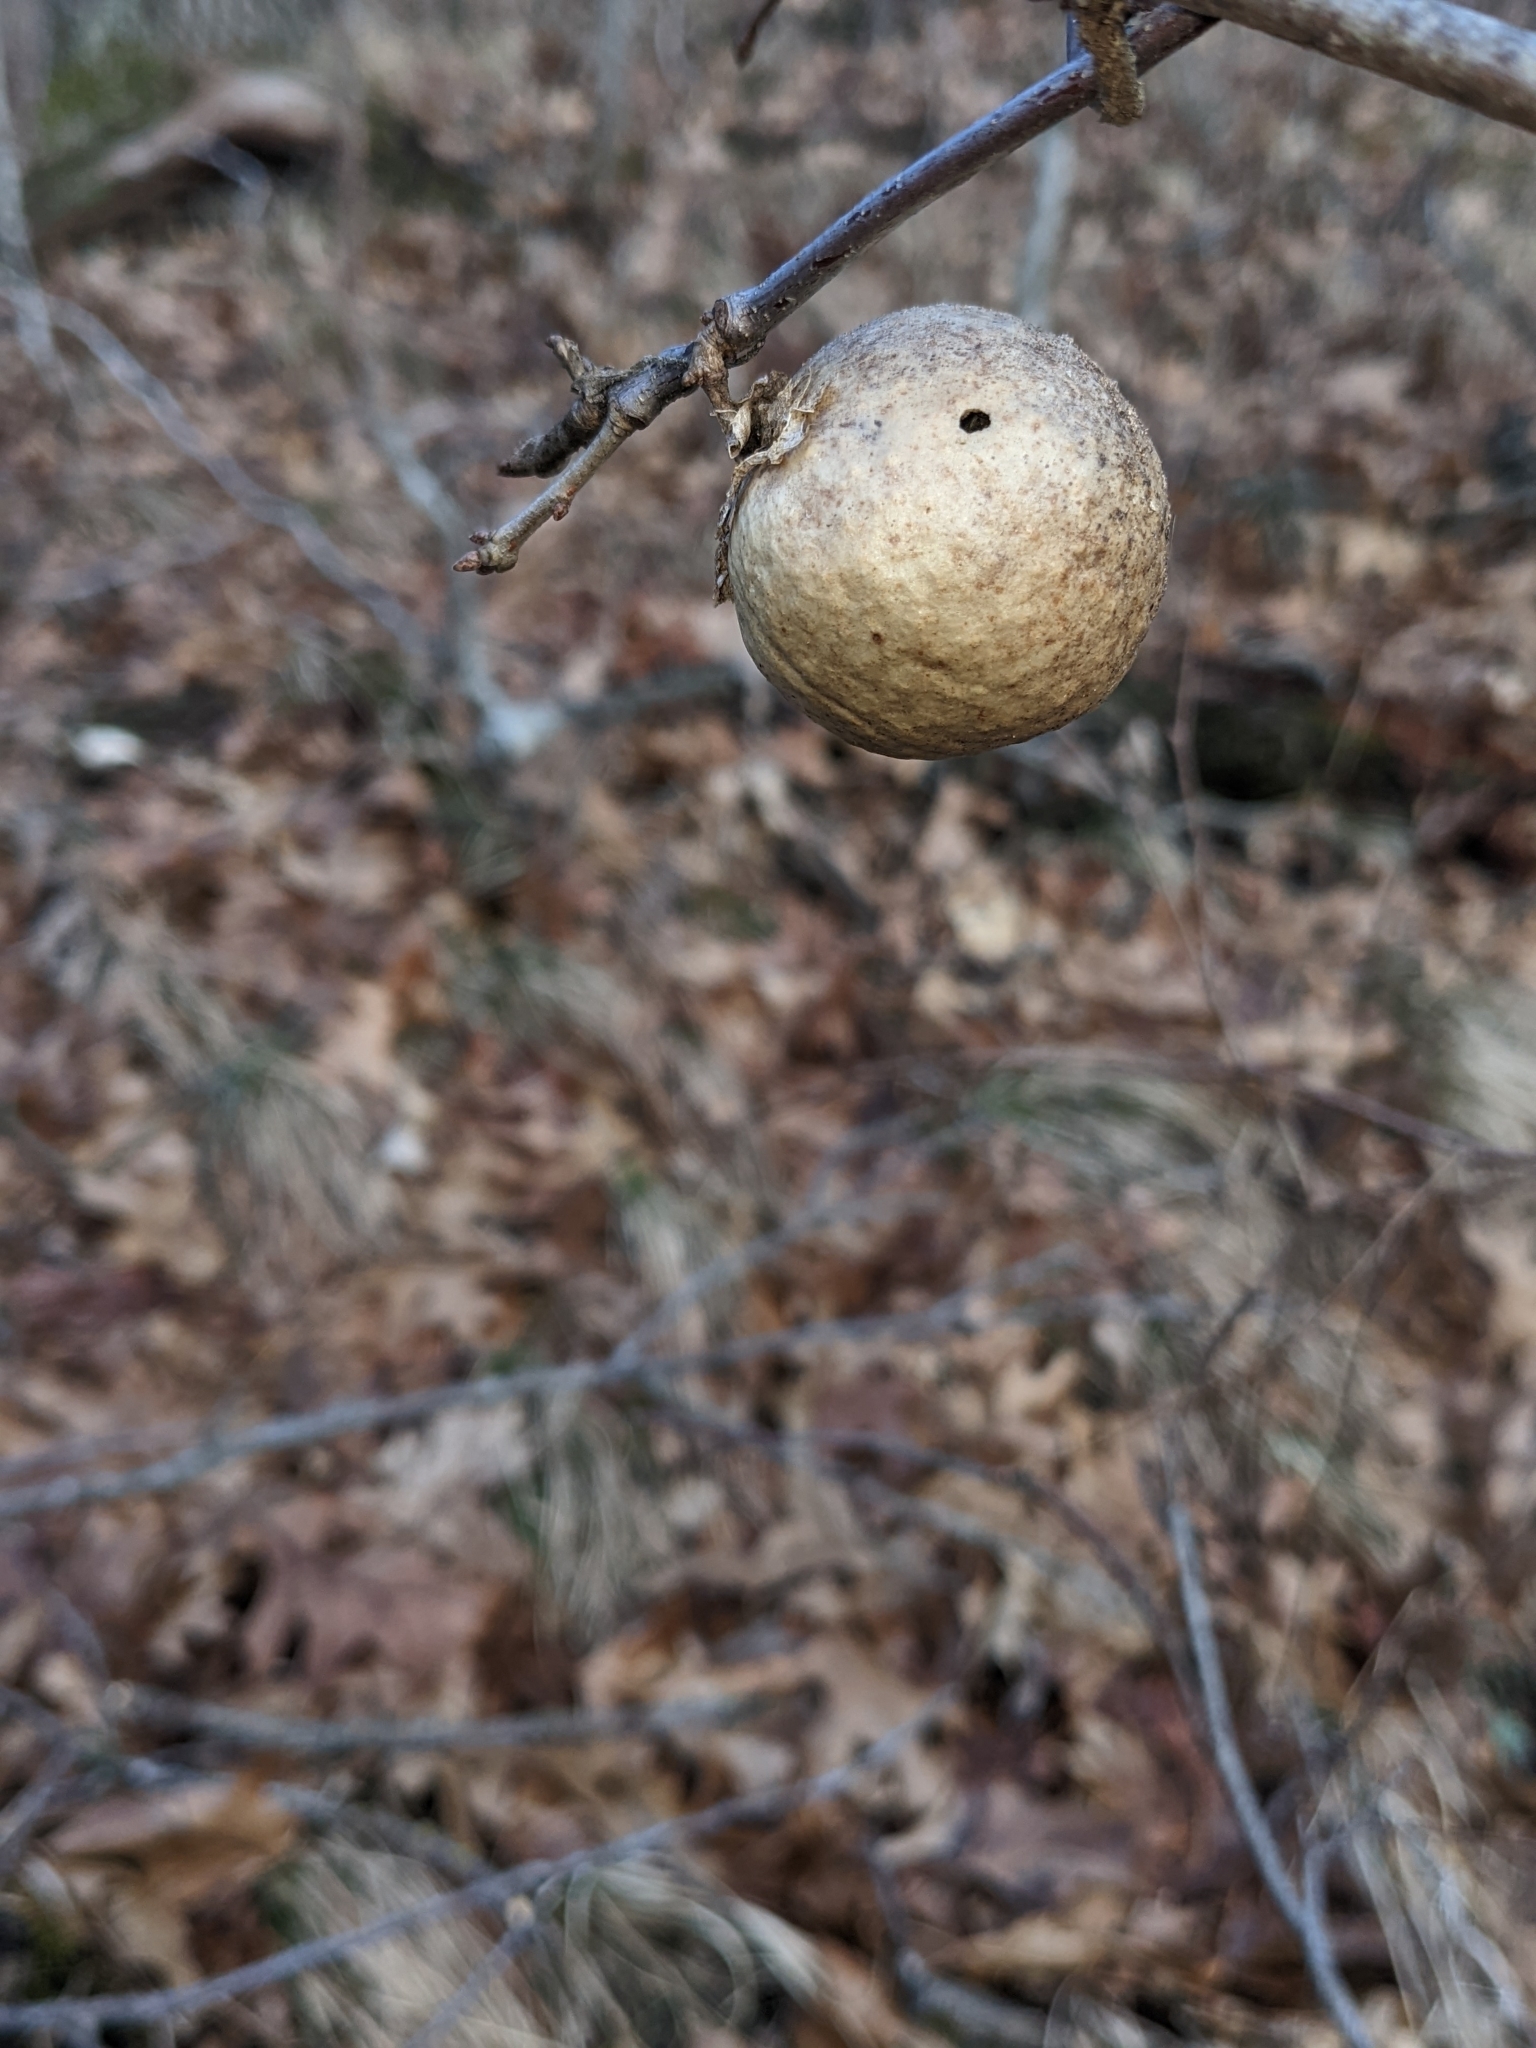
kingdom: Animalia
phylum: Arthropoda
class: Insecta
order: Hymenoptera
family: Cynipidae
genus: Amphibolips
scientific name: Amphibolips
